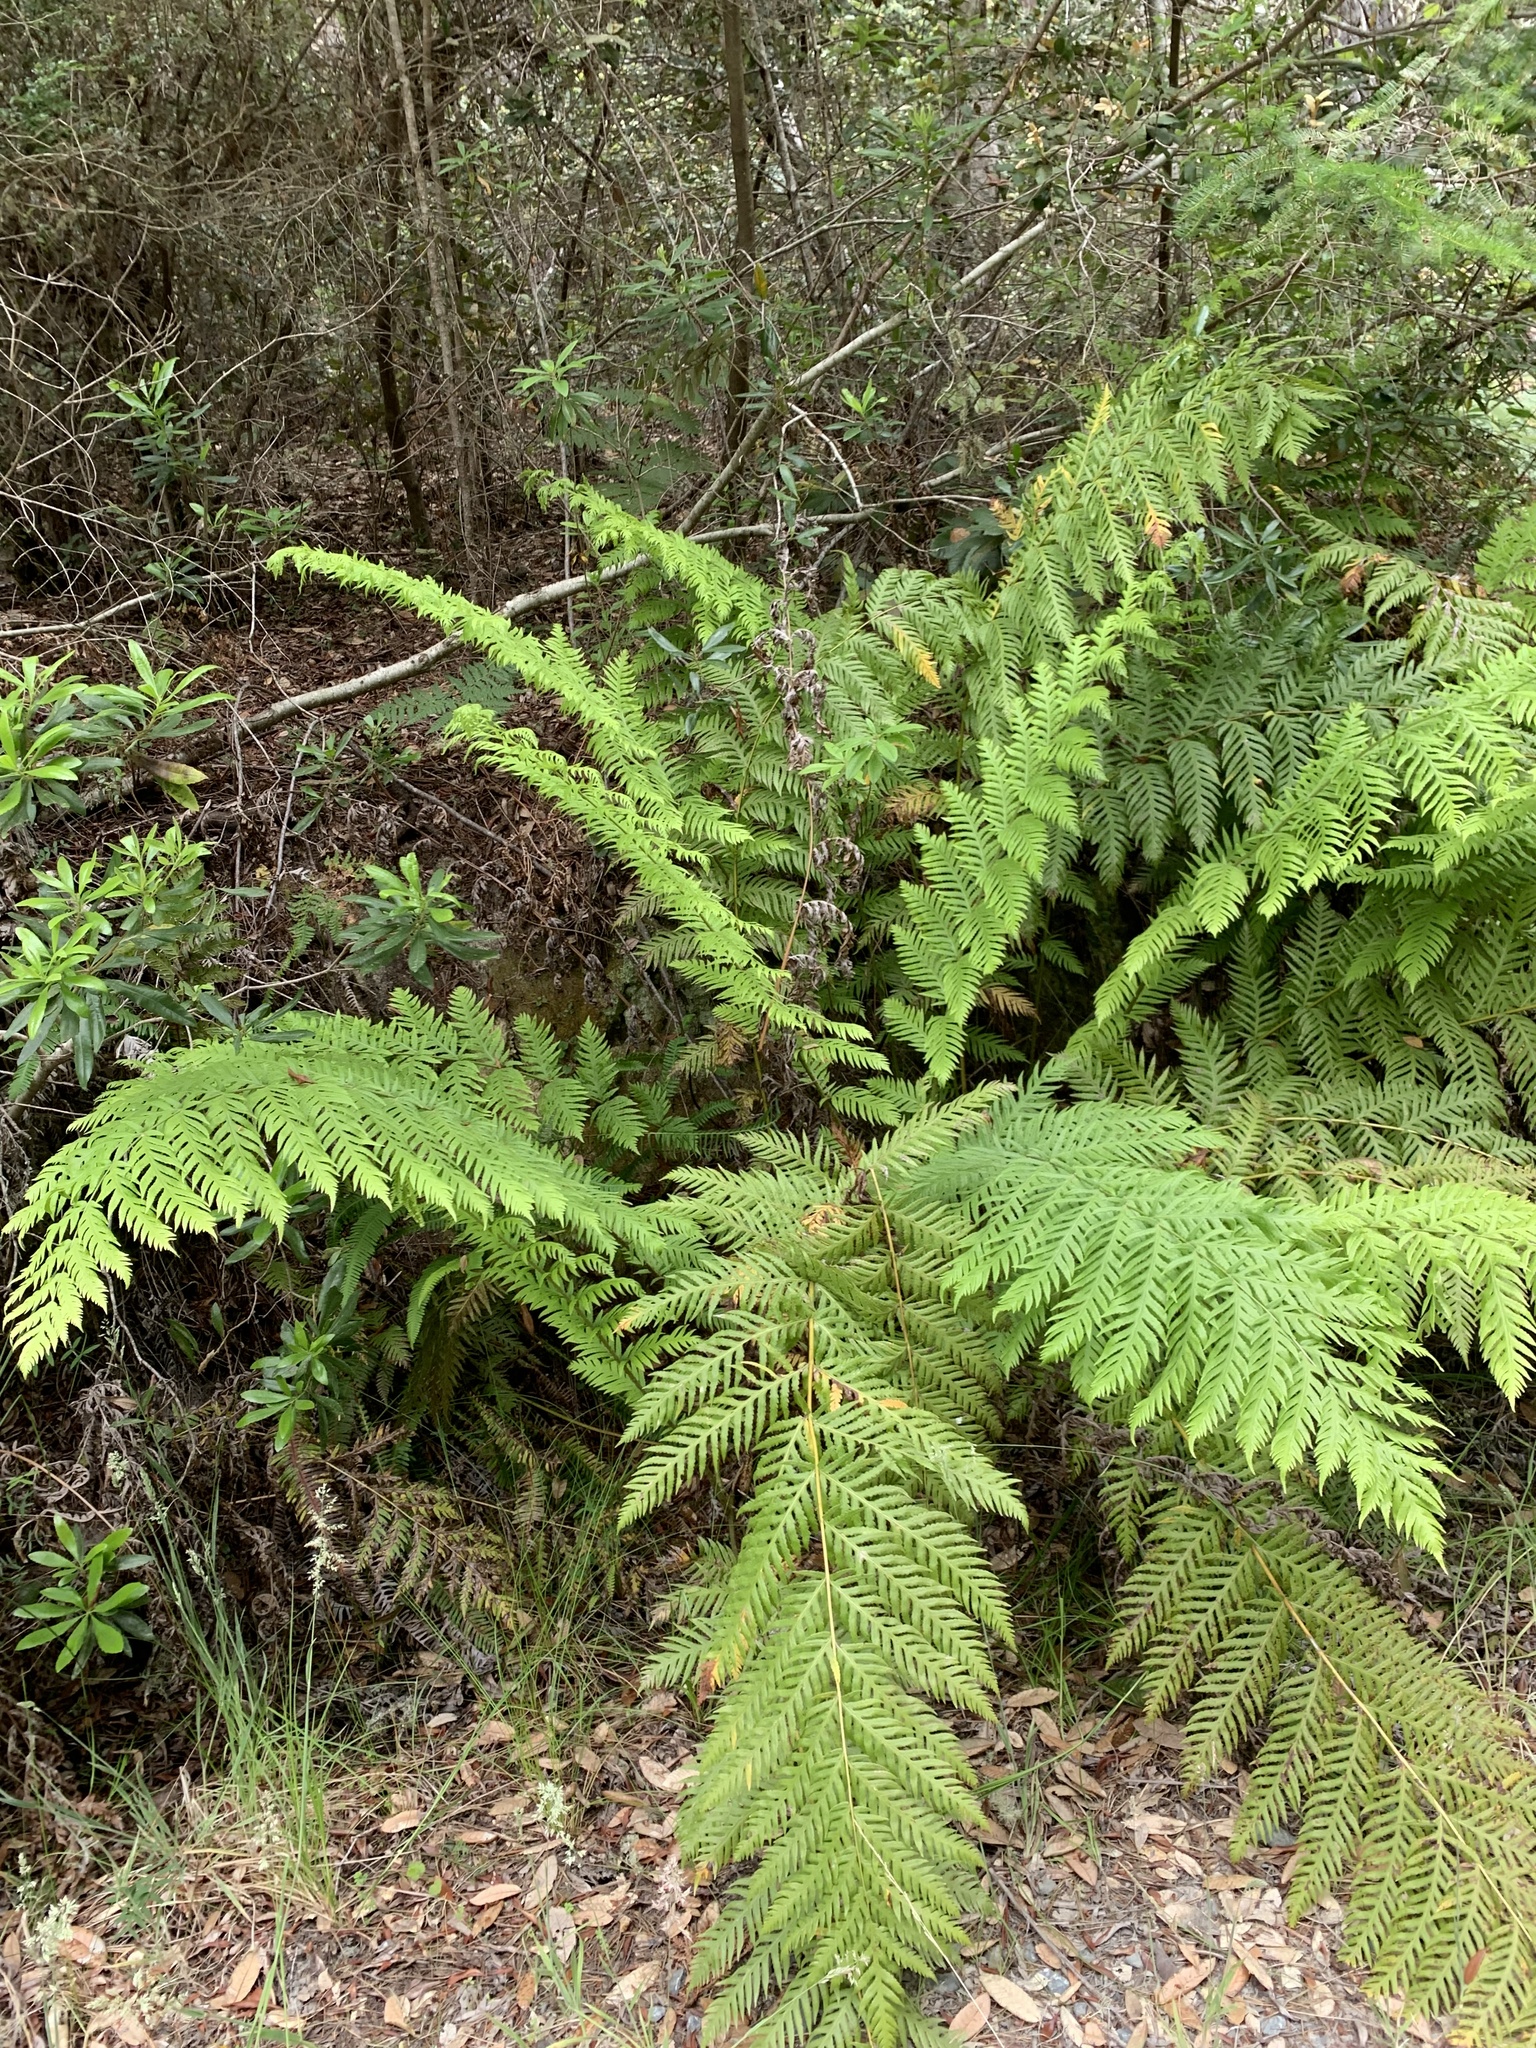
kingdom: Plantae
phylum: Tracheophyta
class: Polypodiopsida
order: Polypodiales
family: Blechnaceae
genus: Woodwardia
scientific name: Woodwardia fimbriata
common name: Giant chain fern
